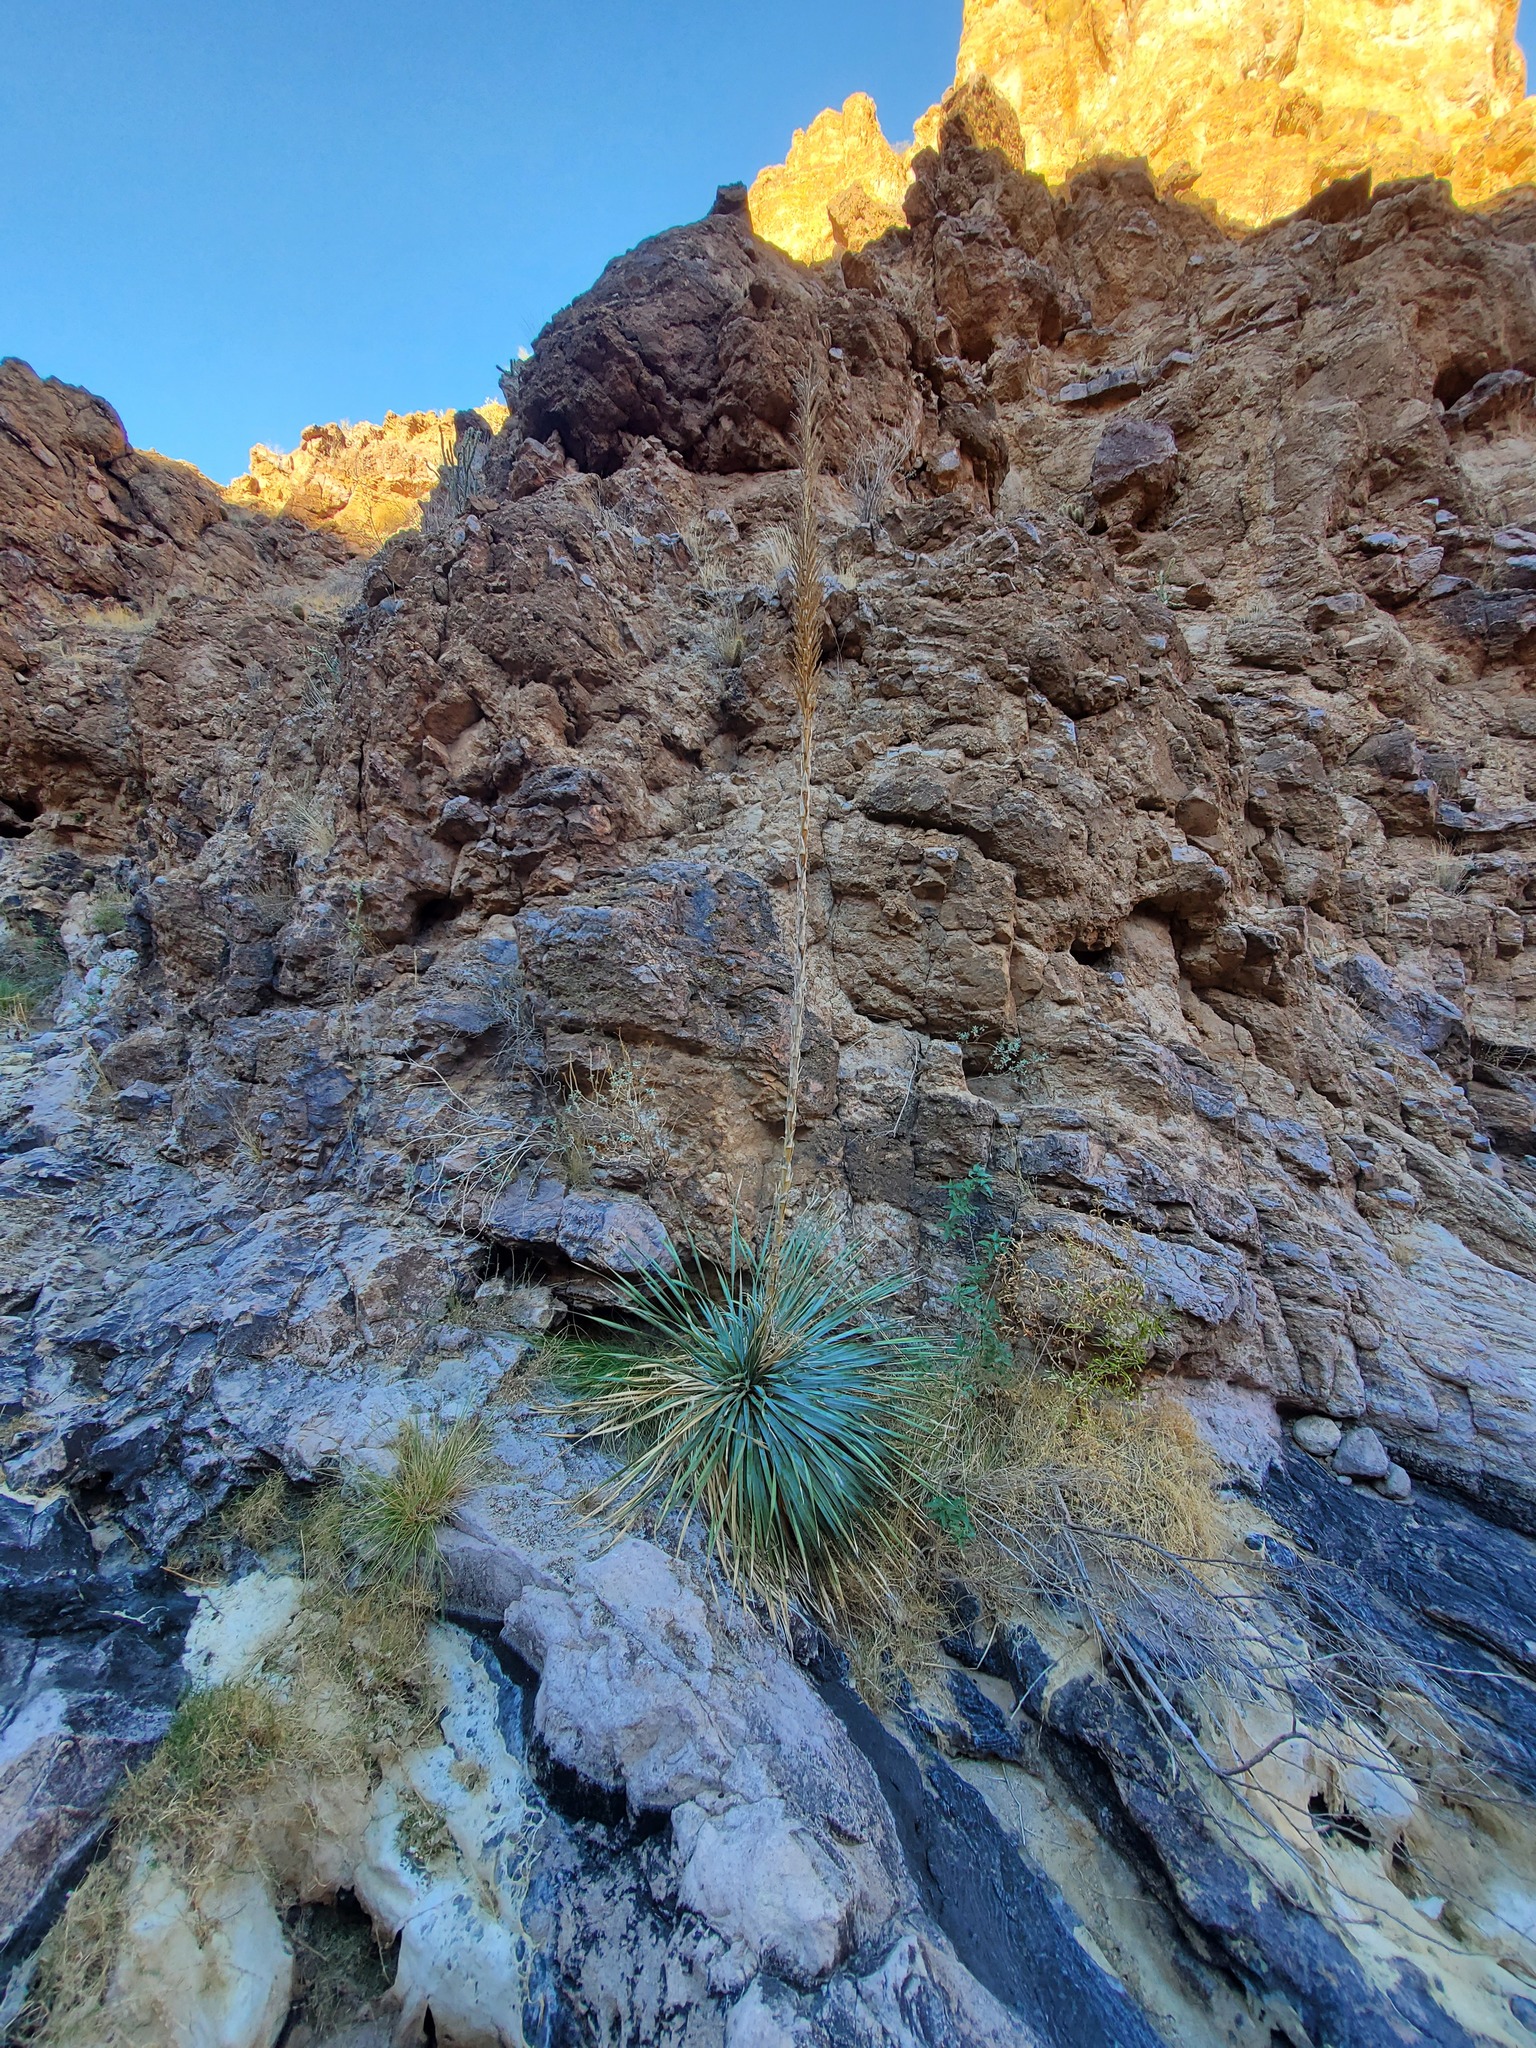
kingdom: Plantae
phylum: Tracheophyta
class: Liliopsida
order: Asparagales
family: Asparagaceae
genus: Dasylirion
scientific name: Dasylirion wheeleri
